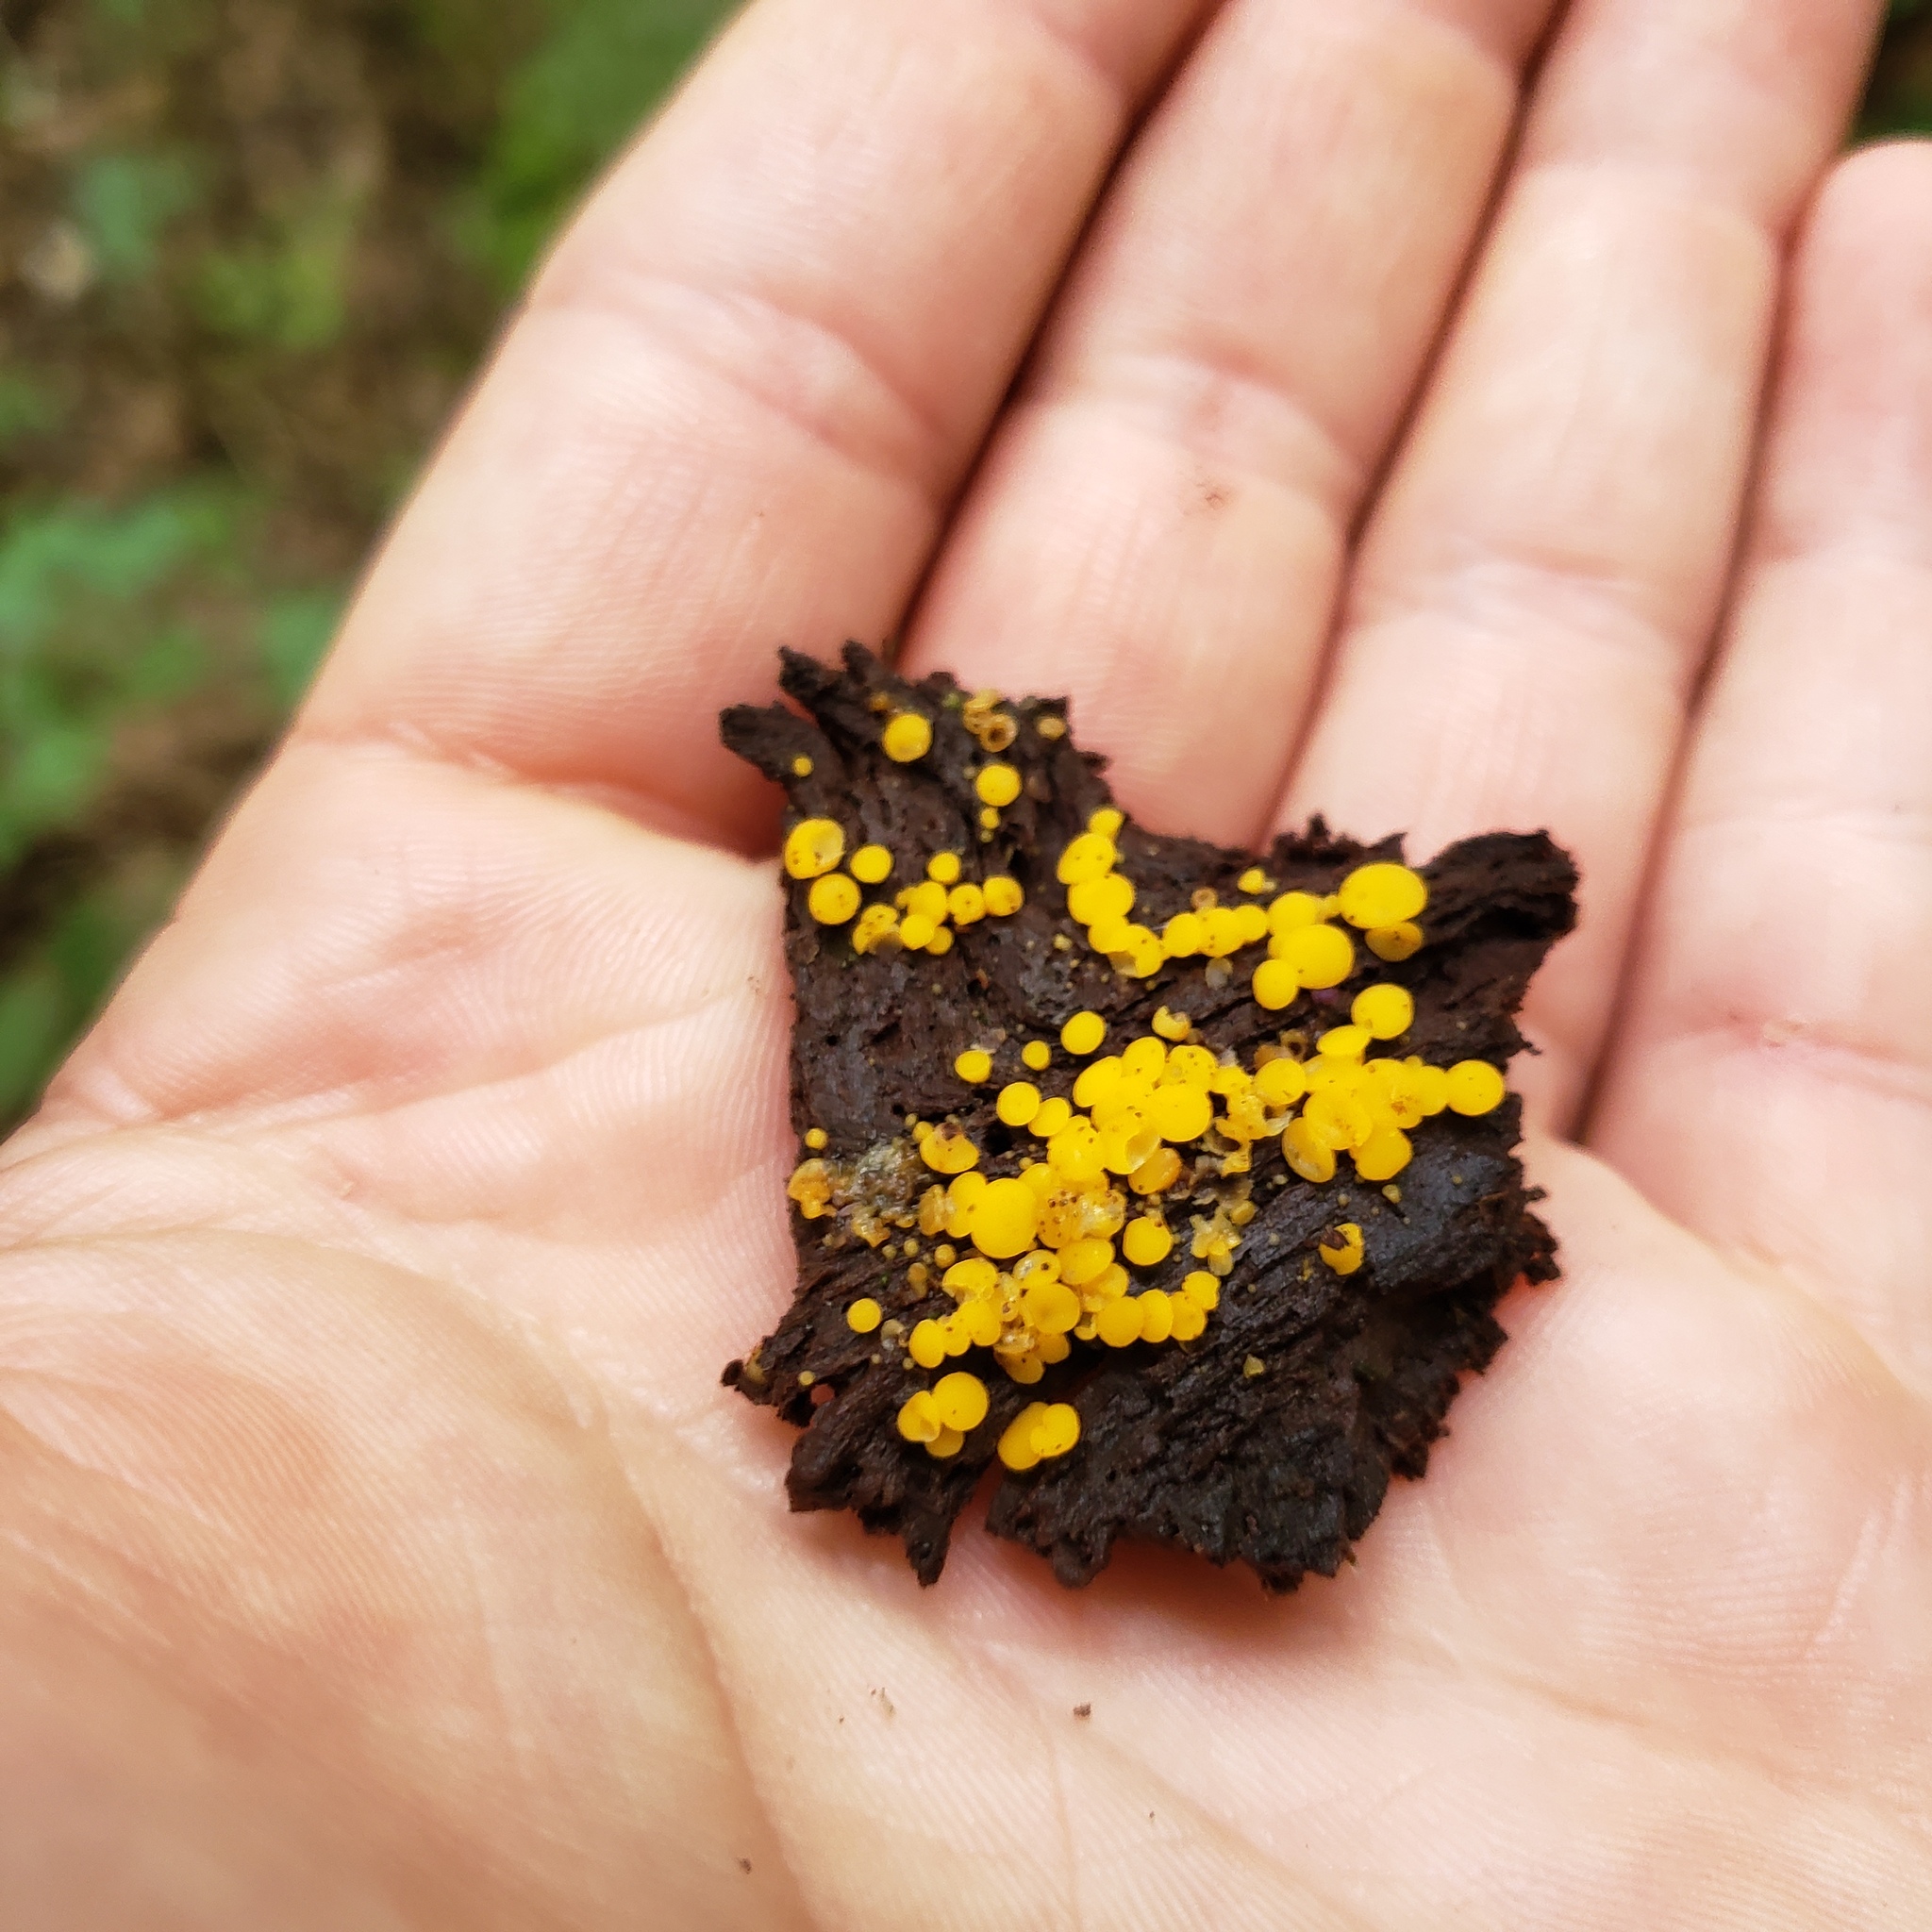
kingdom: Fungi
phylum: Ascomycota
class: Leotiomycetes
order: Helotiales
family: Pezizellaceae
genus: Calycina
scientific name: Calycina citrina
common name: Yellow fairy cups
